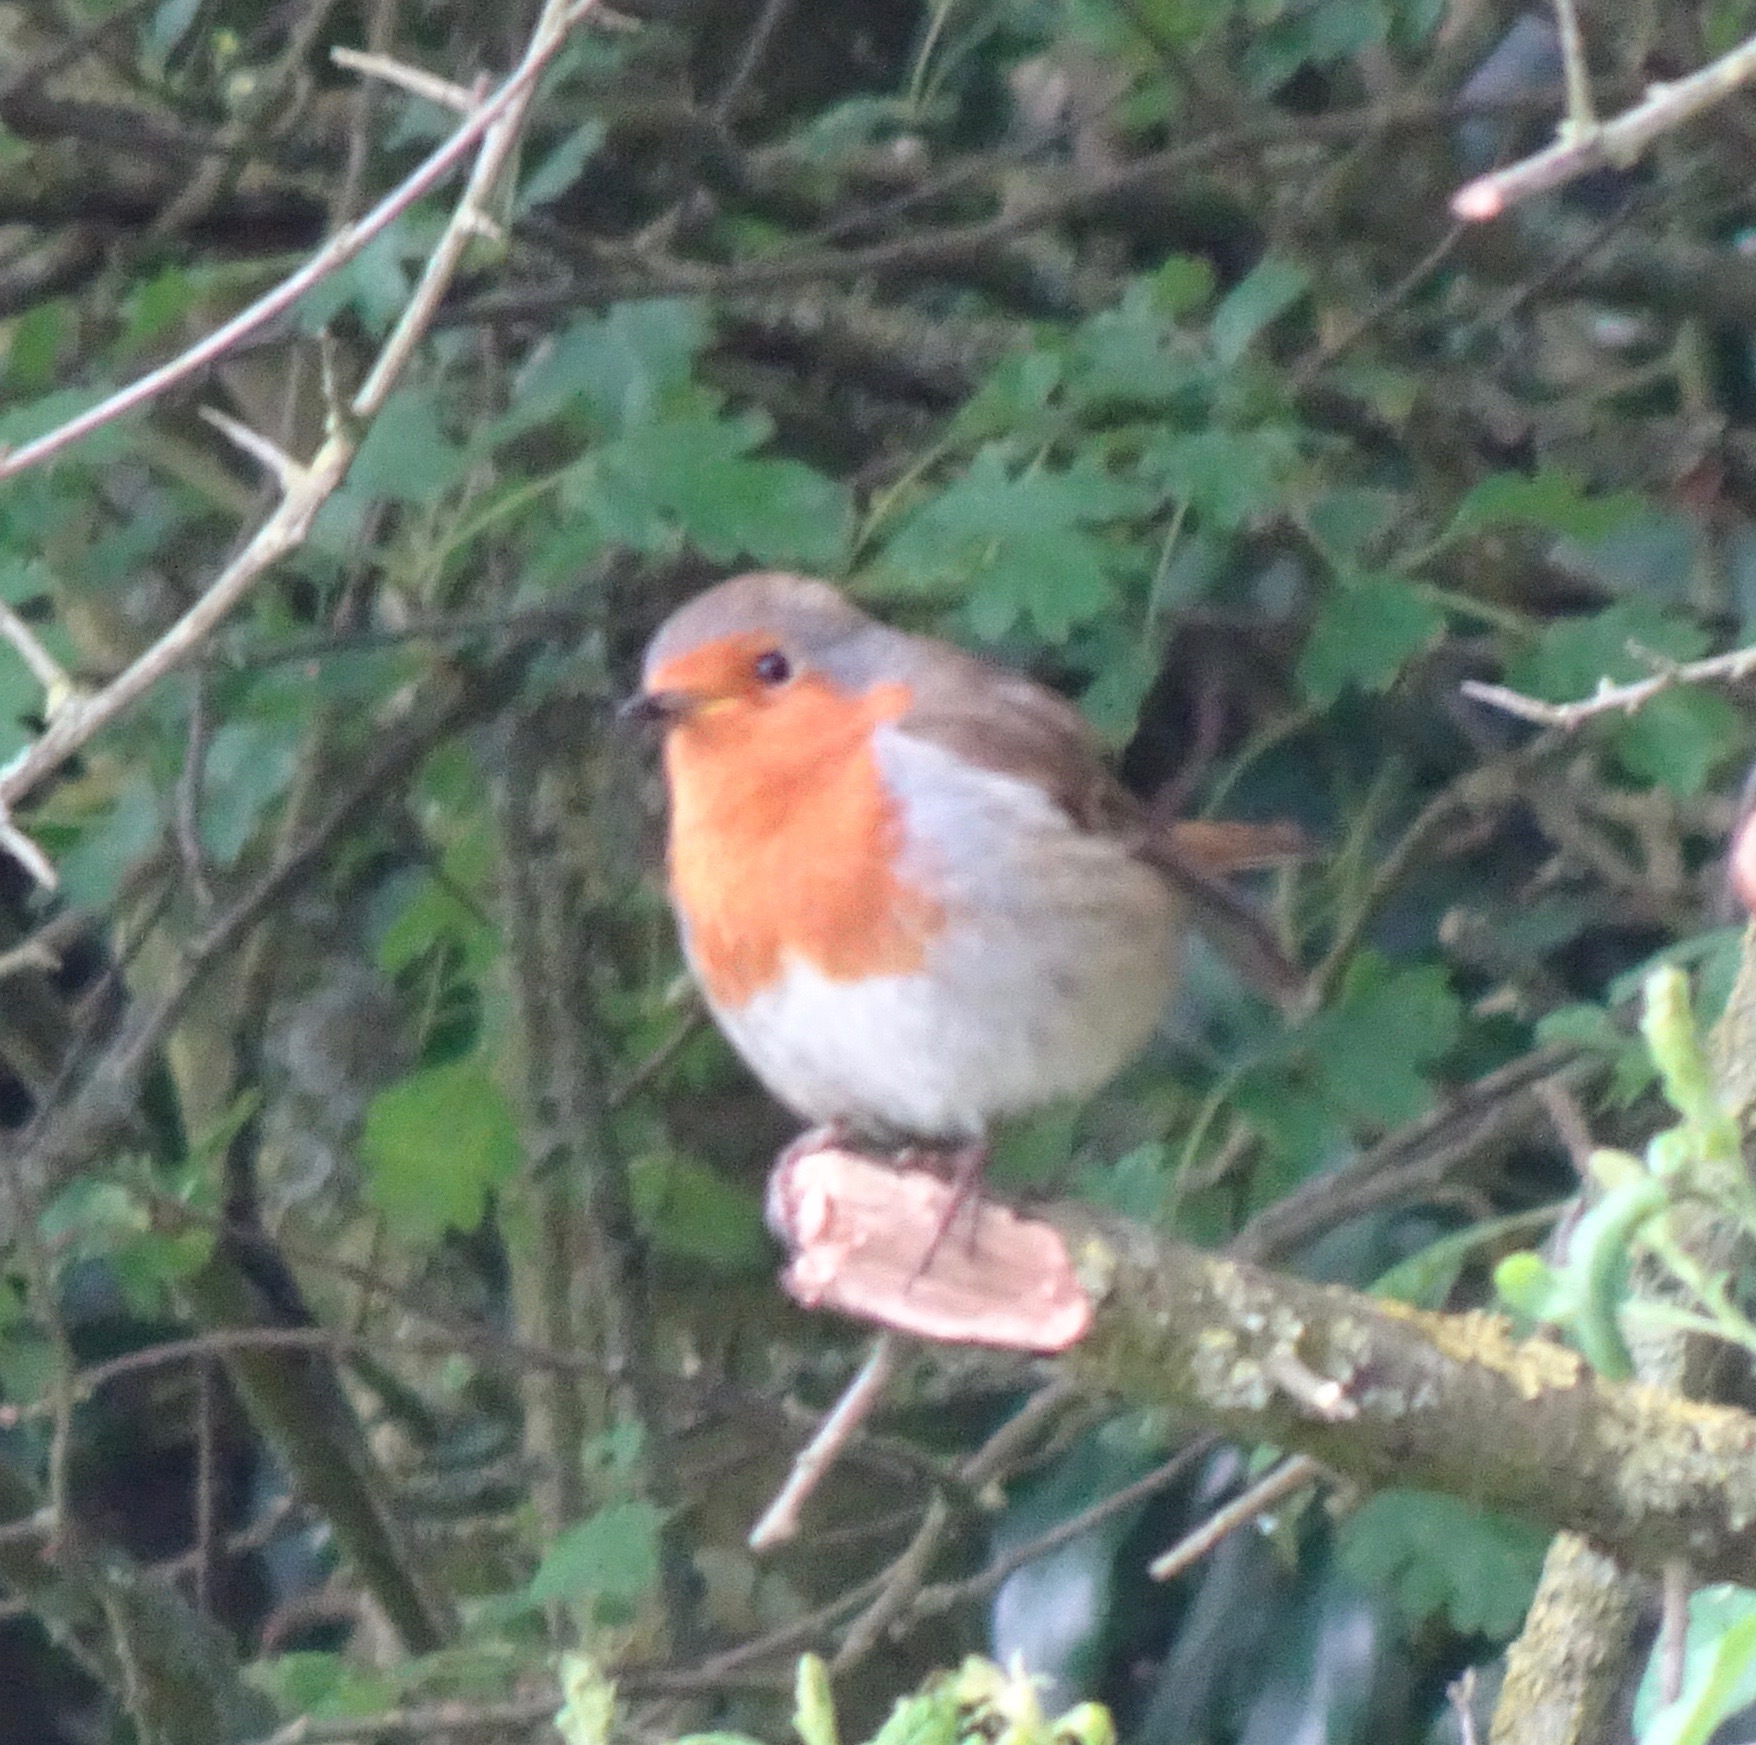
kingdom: Animalia
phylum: Chordata
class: Aves
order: Passeriformes
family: Muscicapidae
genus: Erithacus
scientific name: Erithacus rubecula
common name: European robin
